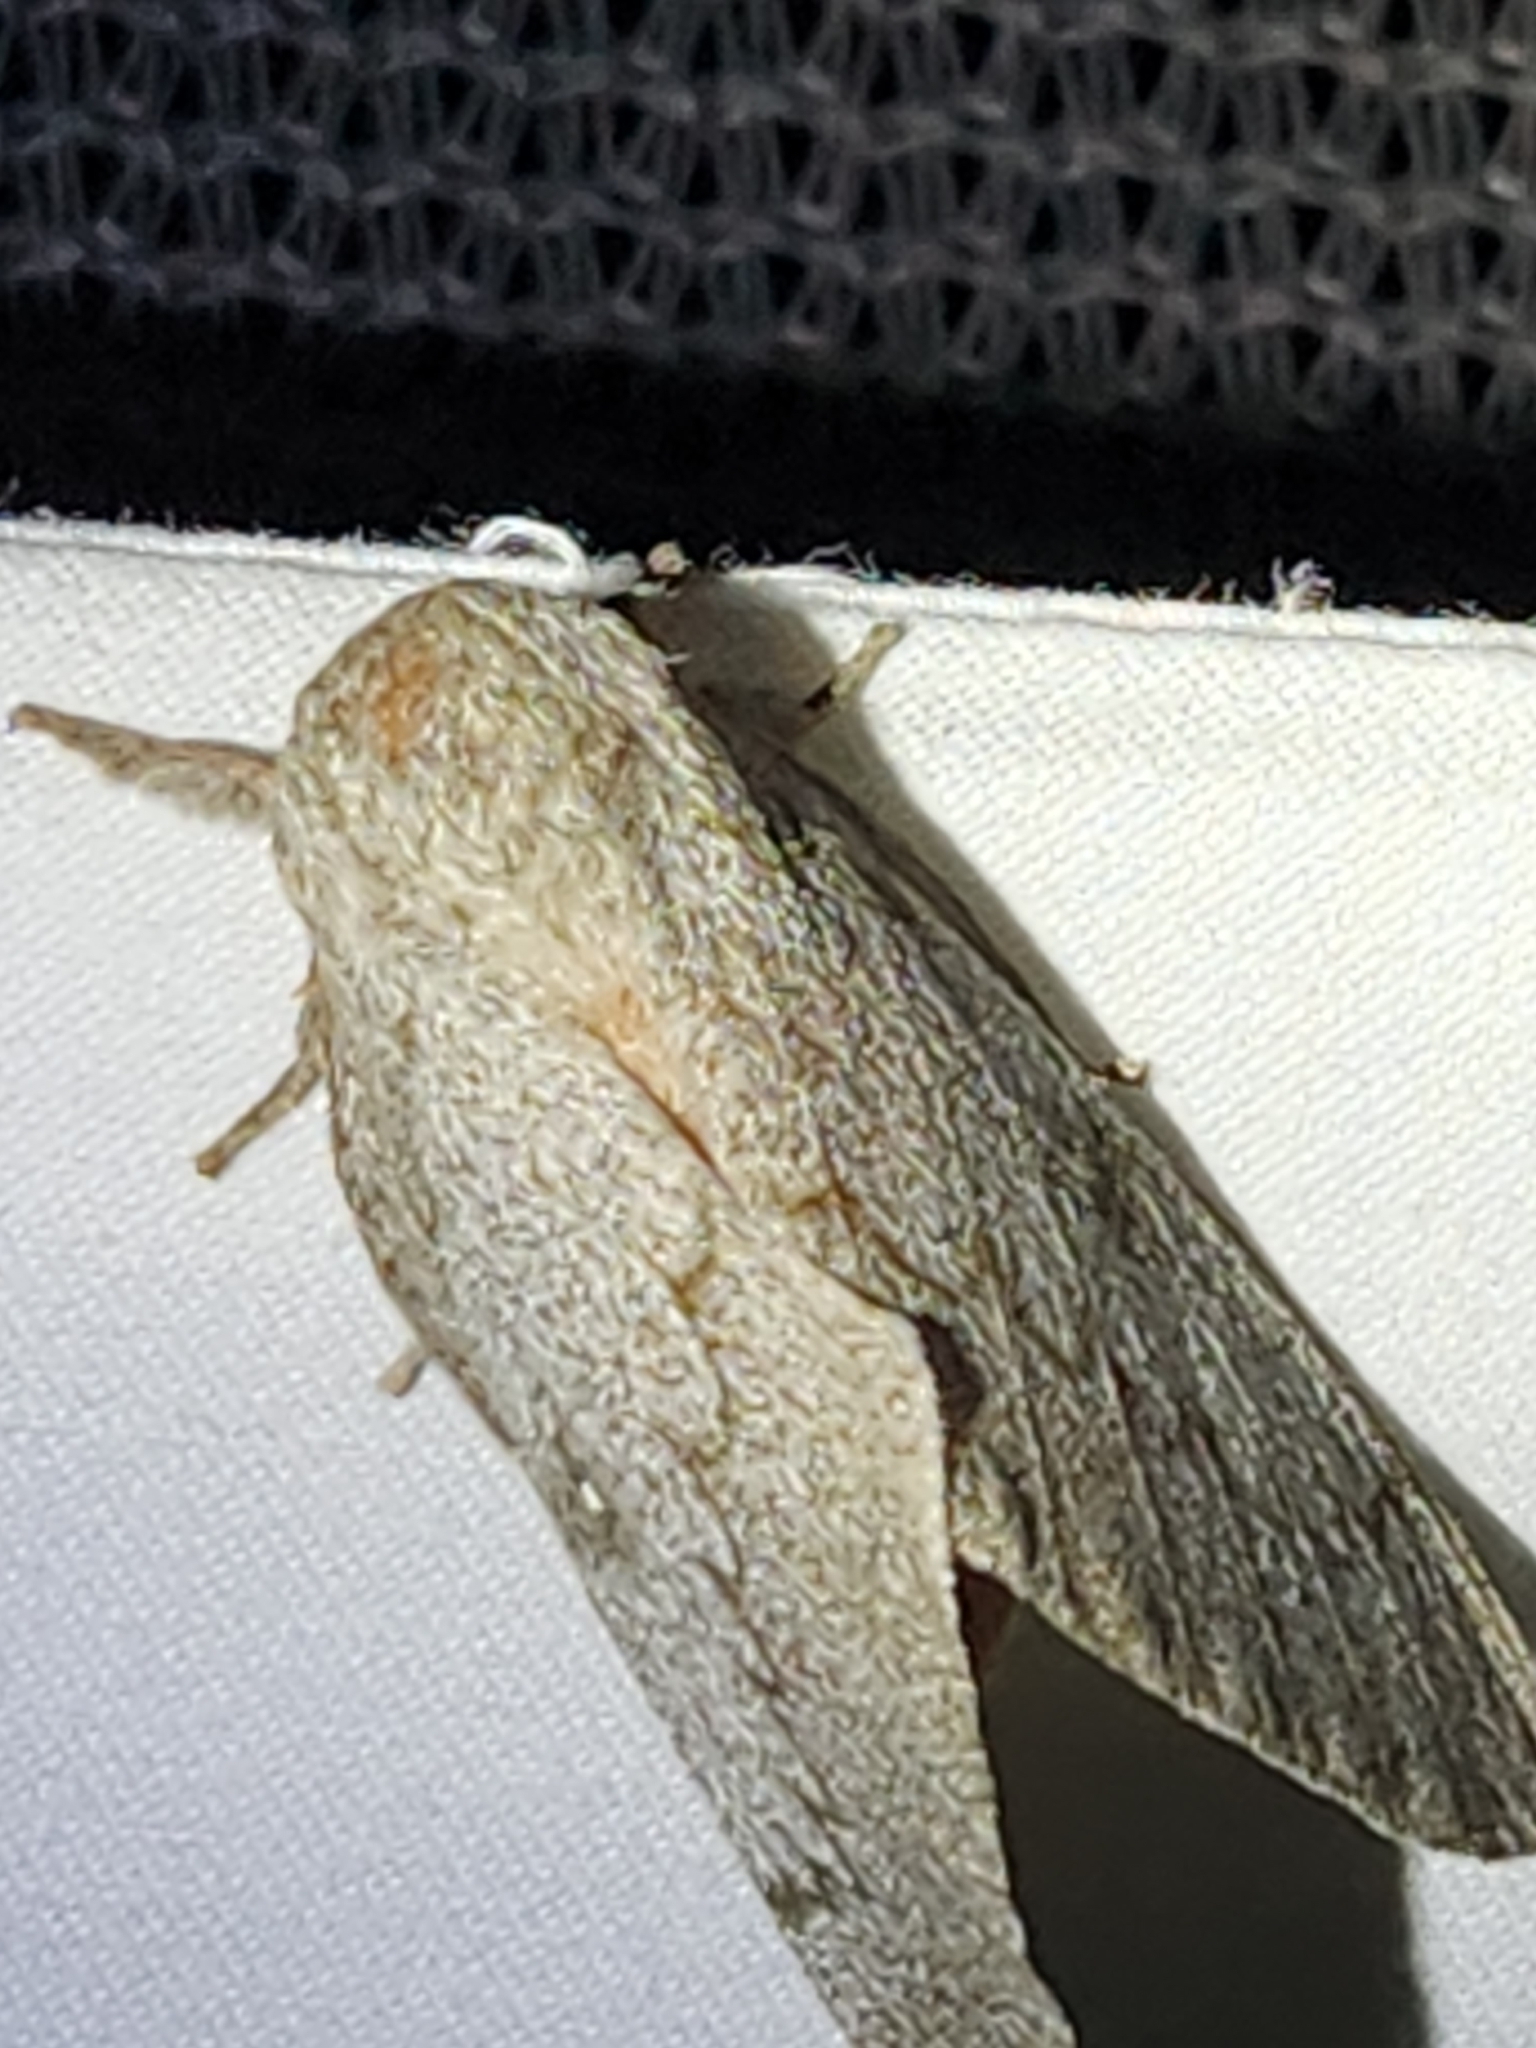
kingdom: Animalia
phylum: Arthropoda
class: Insecta
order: Lepidoptera
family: Saturniidae
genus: Syssphinx
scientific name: Syssphinx heiligbrodti
